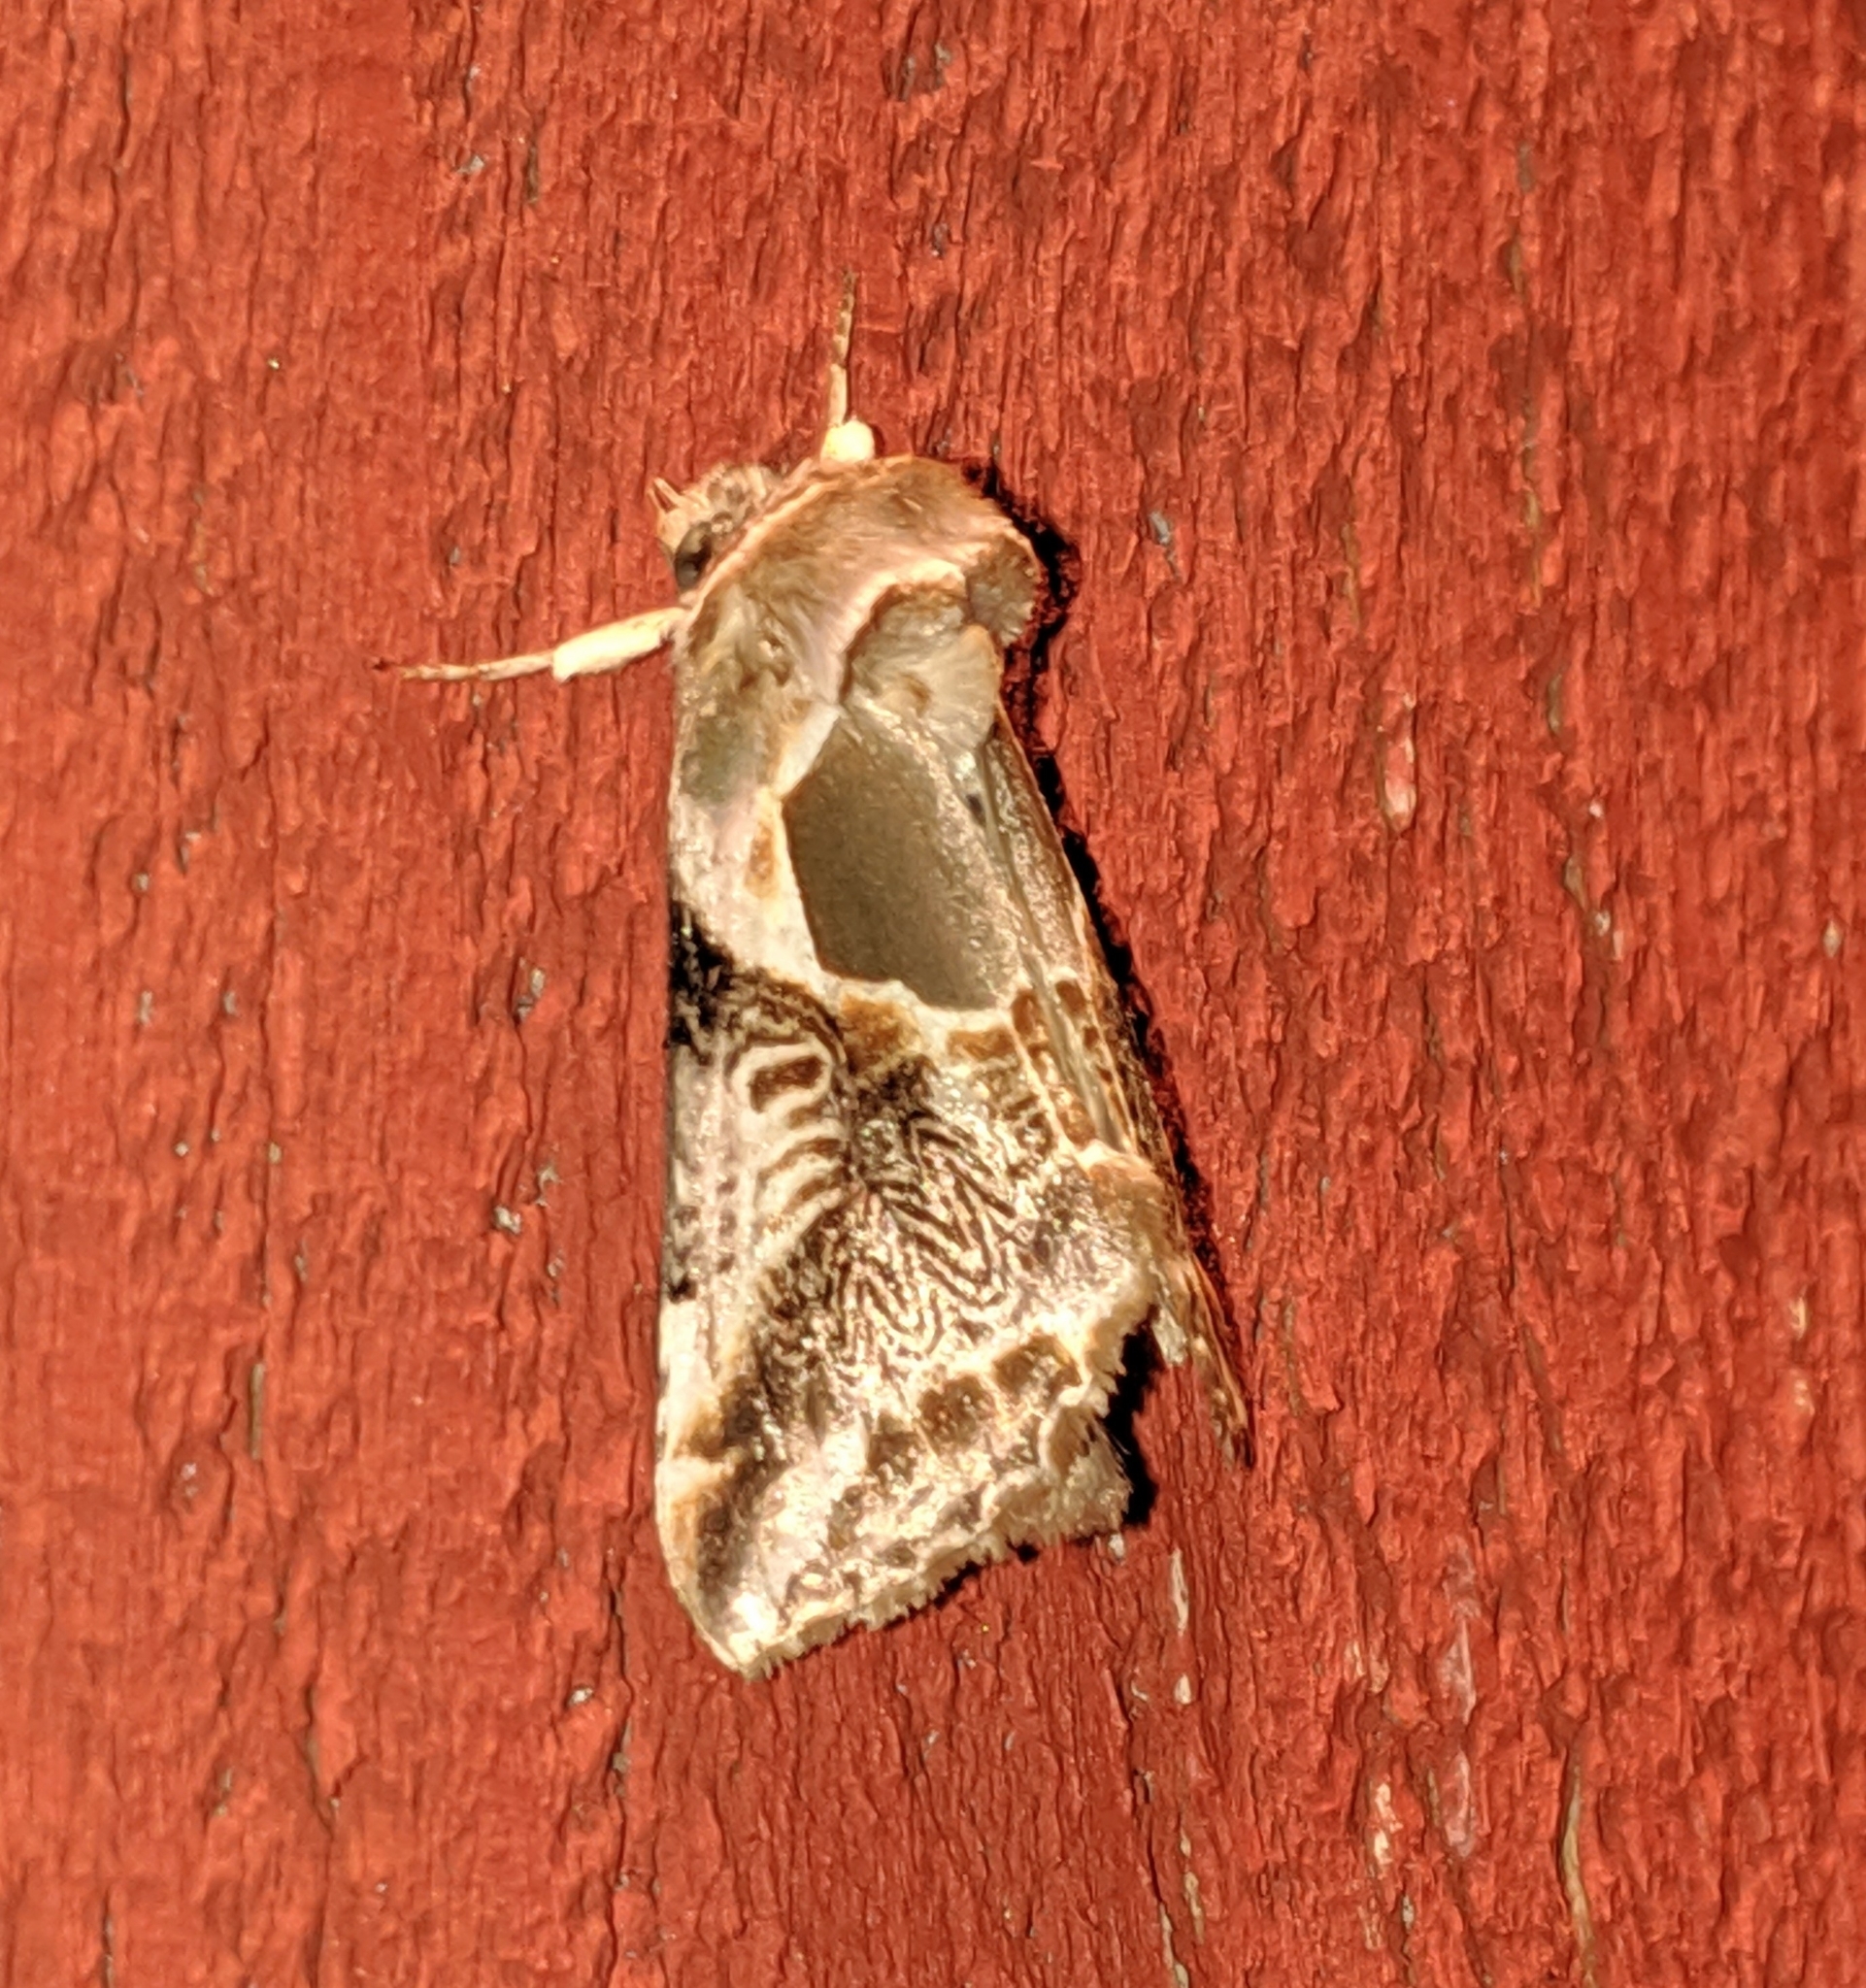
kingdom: Animalia
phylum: Arthropoda
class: Insecta
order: Lepidoptera
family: Drepanidae
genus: Habrosyne
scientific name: Habrosyne scripta
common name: Lettered habrosyne moth
